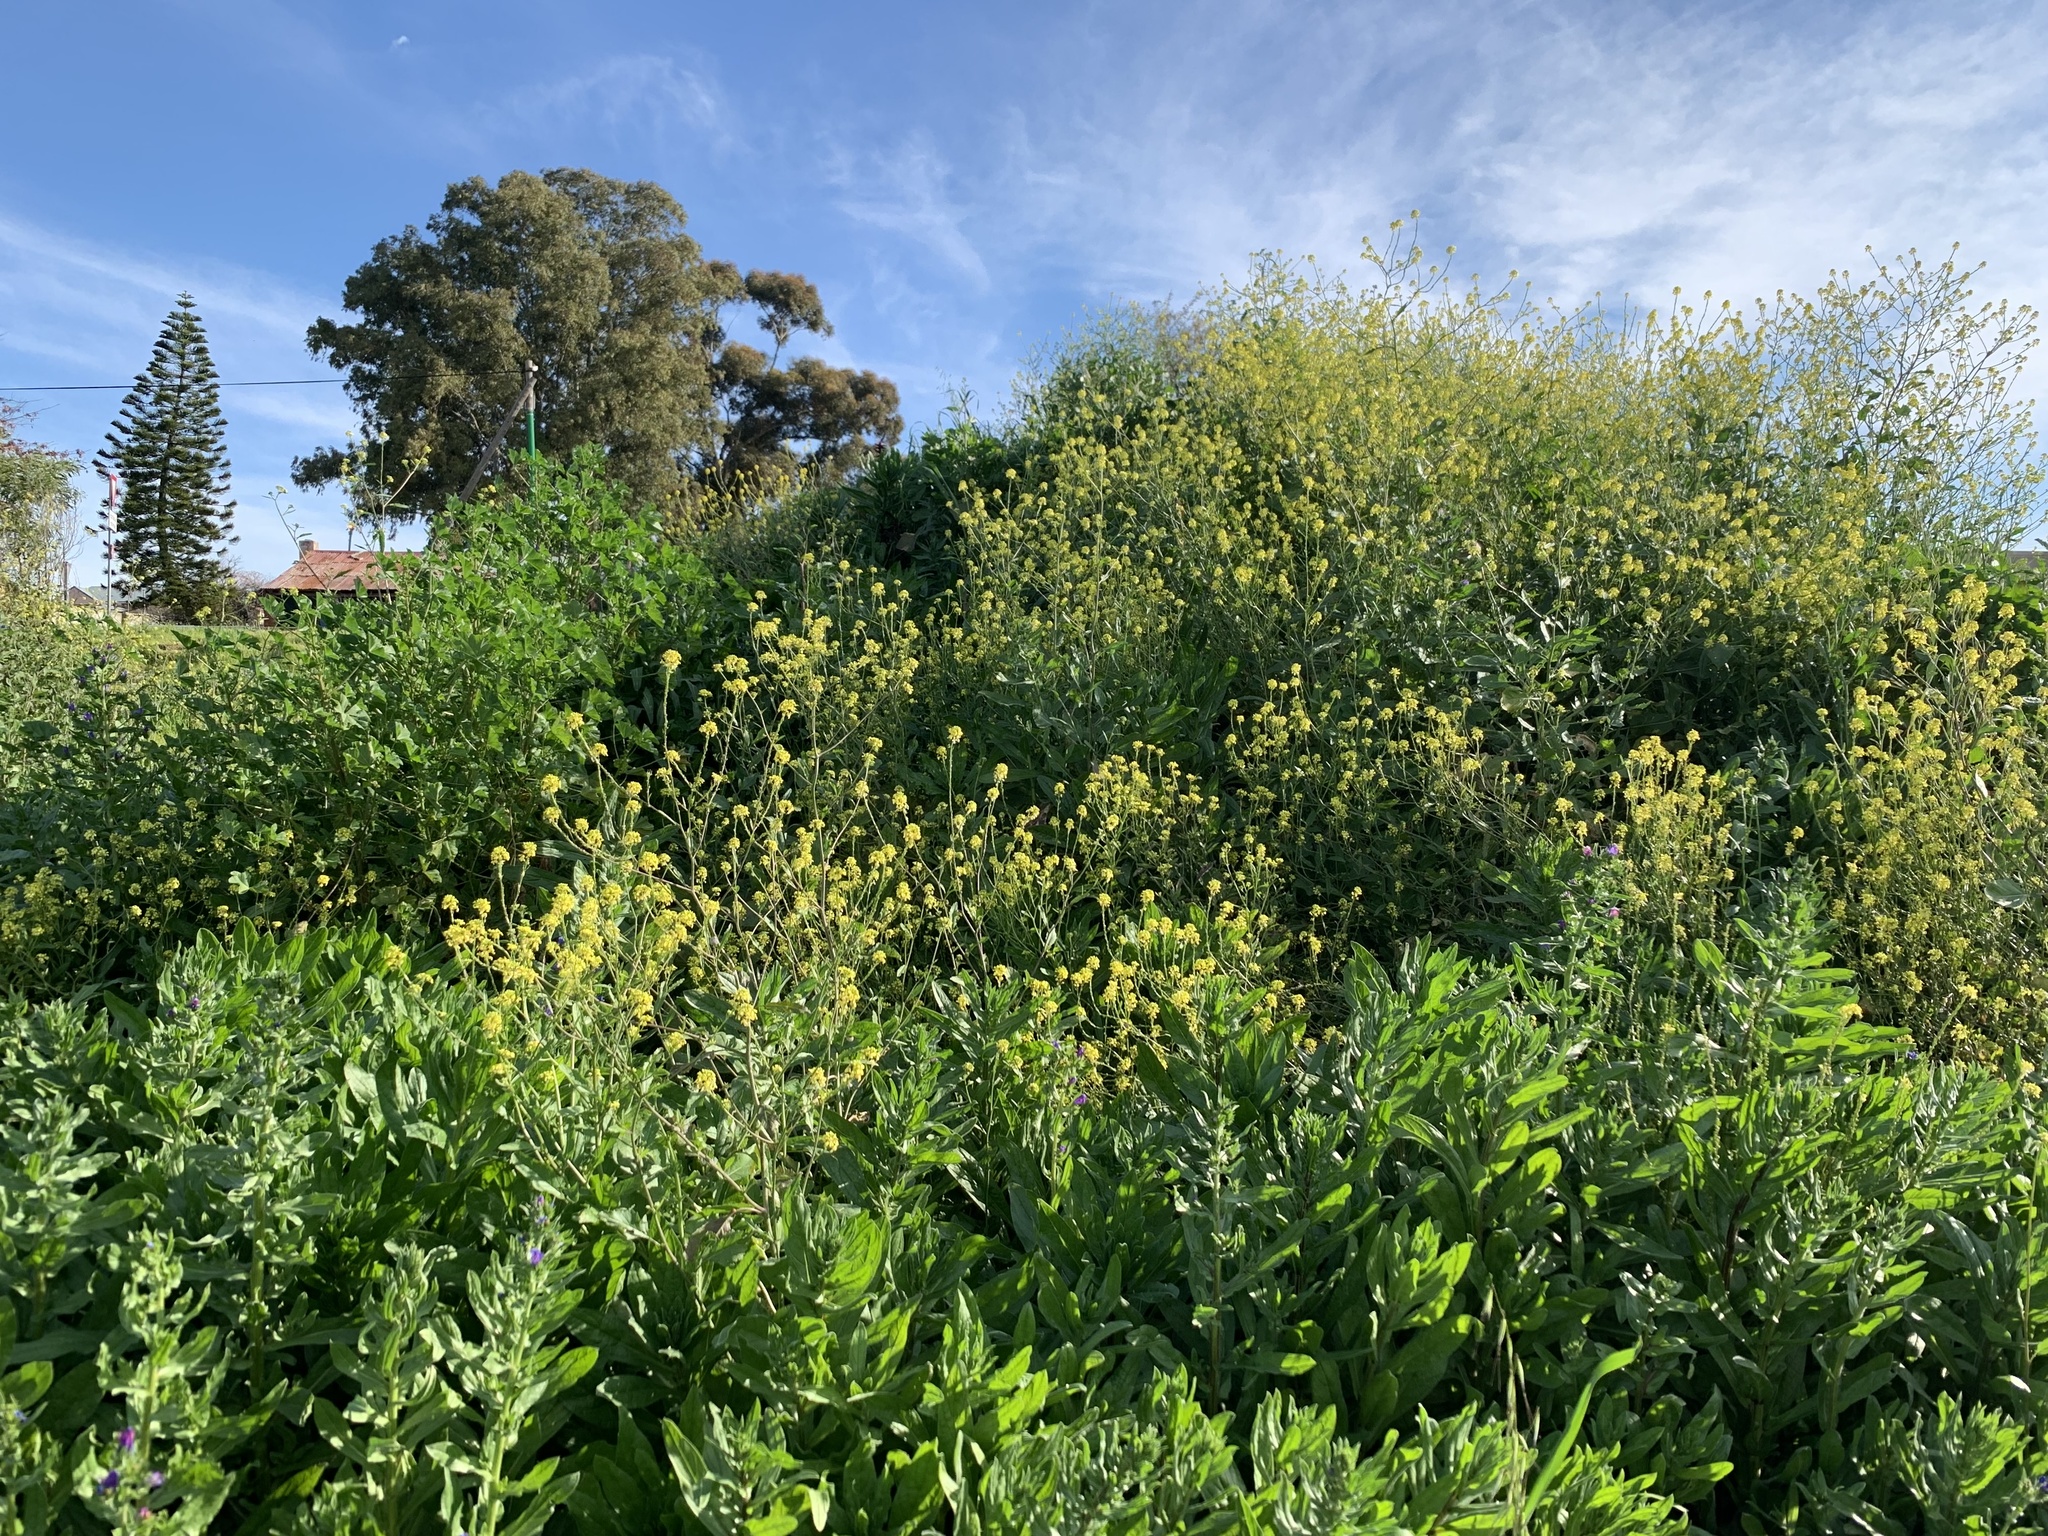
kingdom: Plantae
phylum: Tracheophyta
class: Magnoliopsida
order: Brassicales
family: Brassicaceae
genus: Rapistrum
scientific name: Rapistrum rugosum
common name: Annual bastardcabbage
